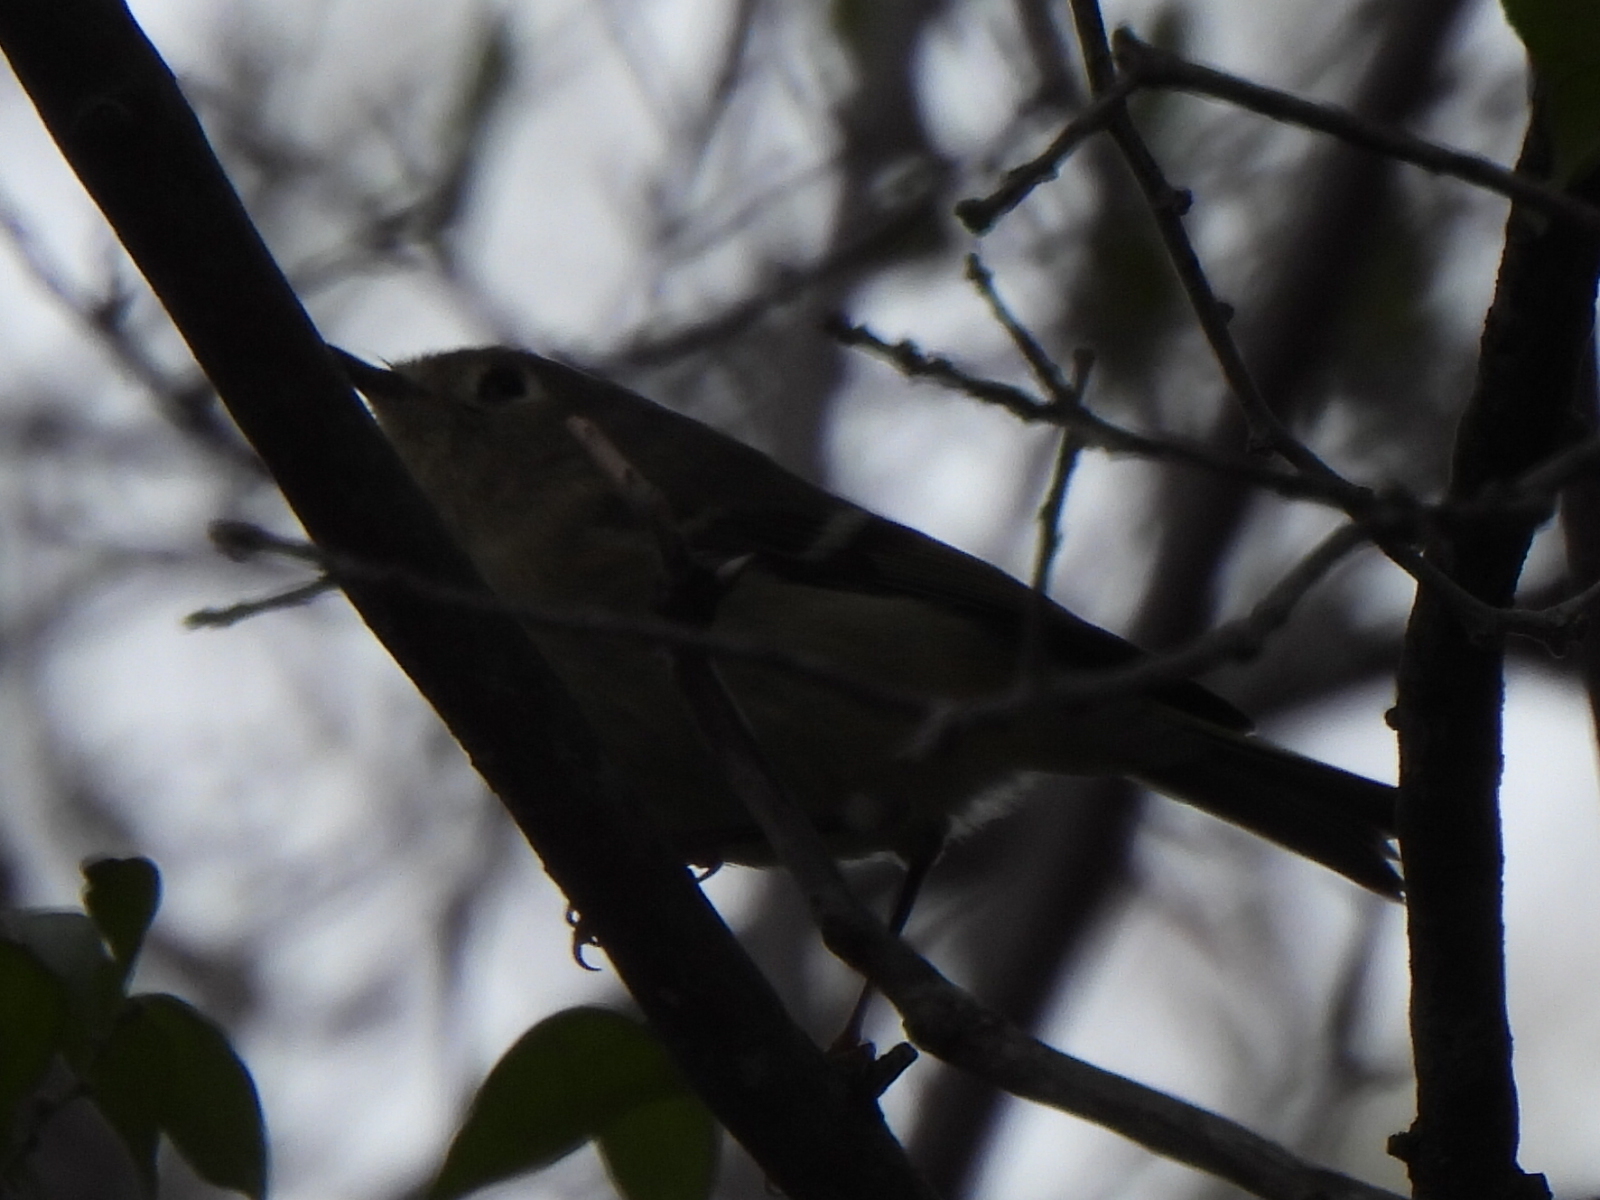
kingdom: Animalia
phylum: Chordata
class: Aves
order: Passeriformes
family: Regulidae
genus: Regulus
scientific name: Regulus calendula
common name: Ruby-crowned kinglet
